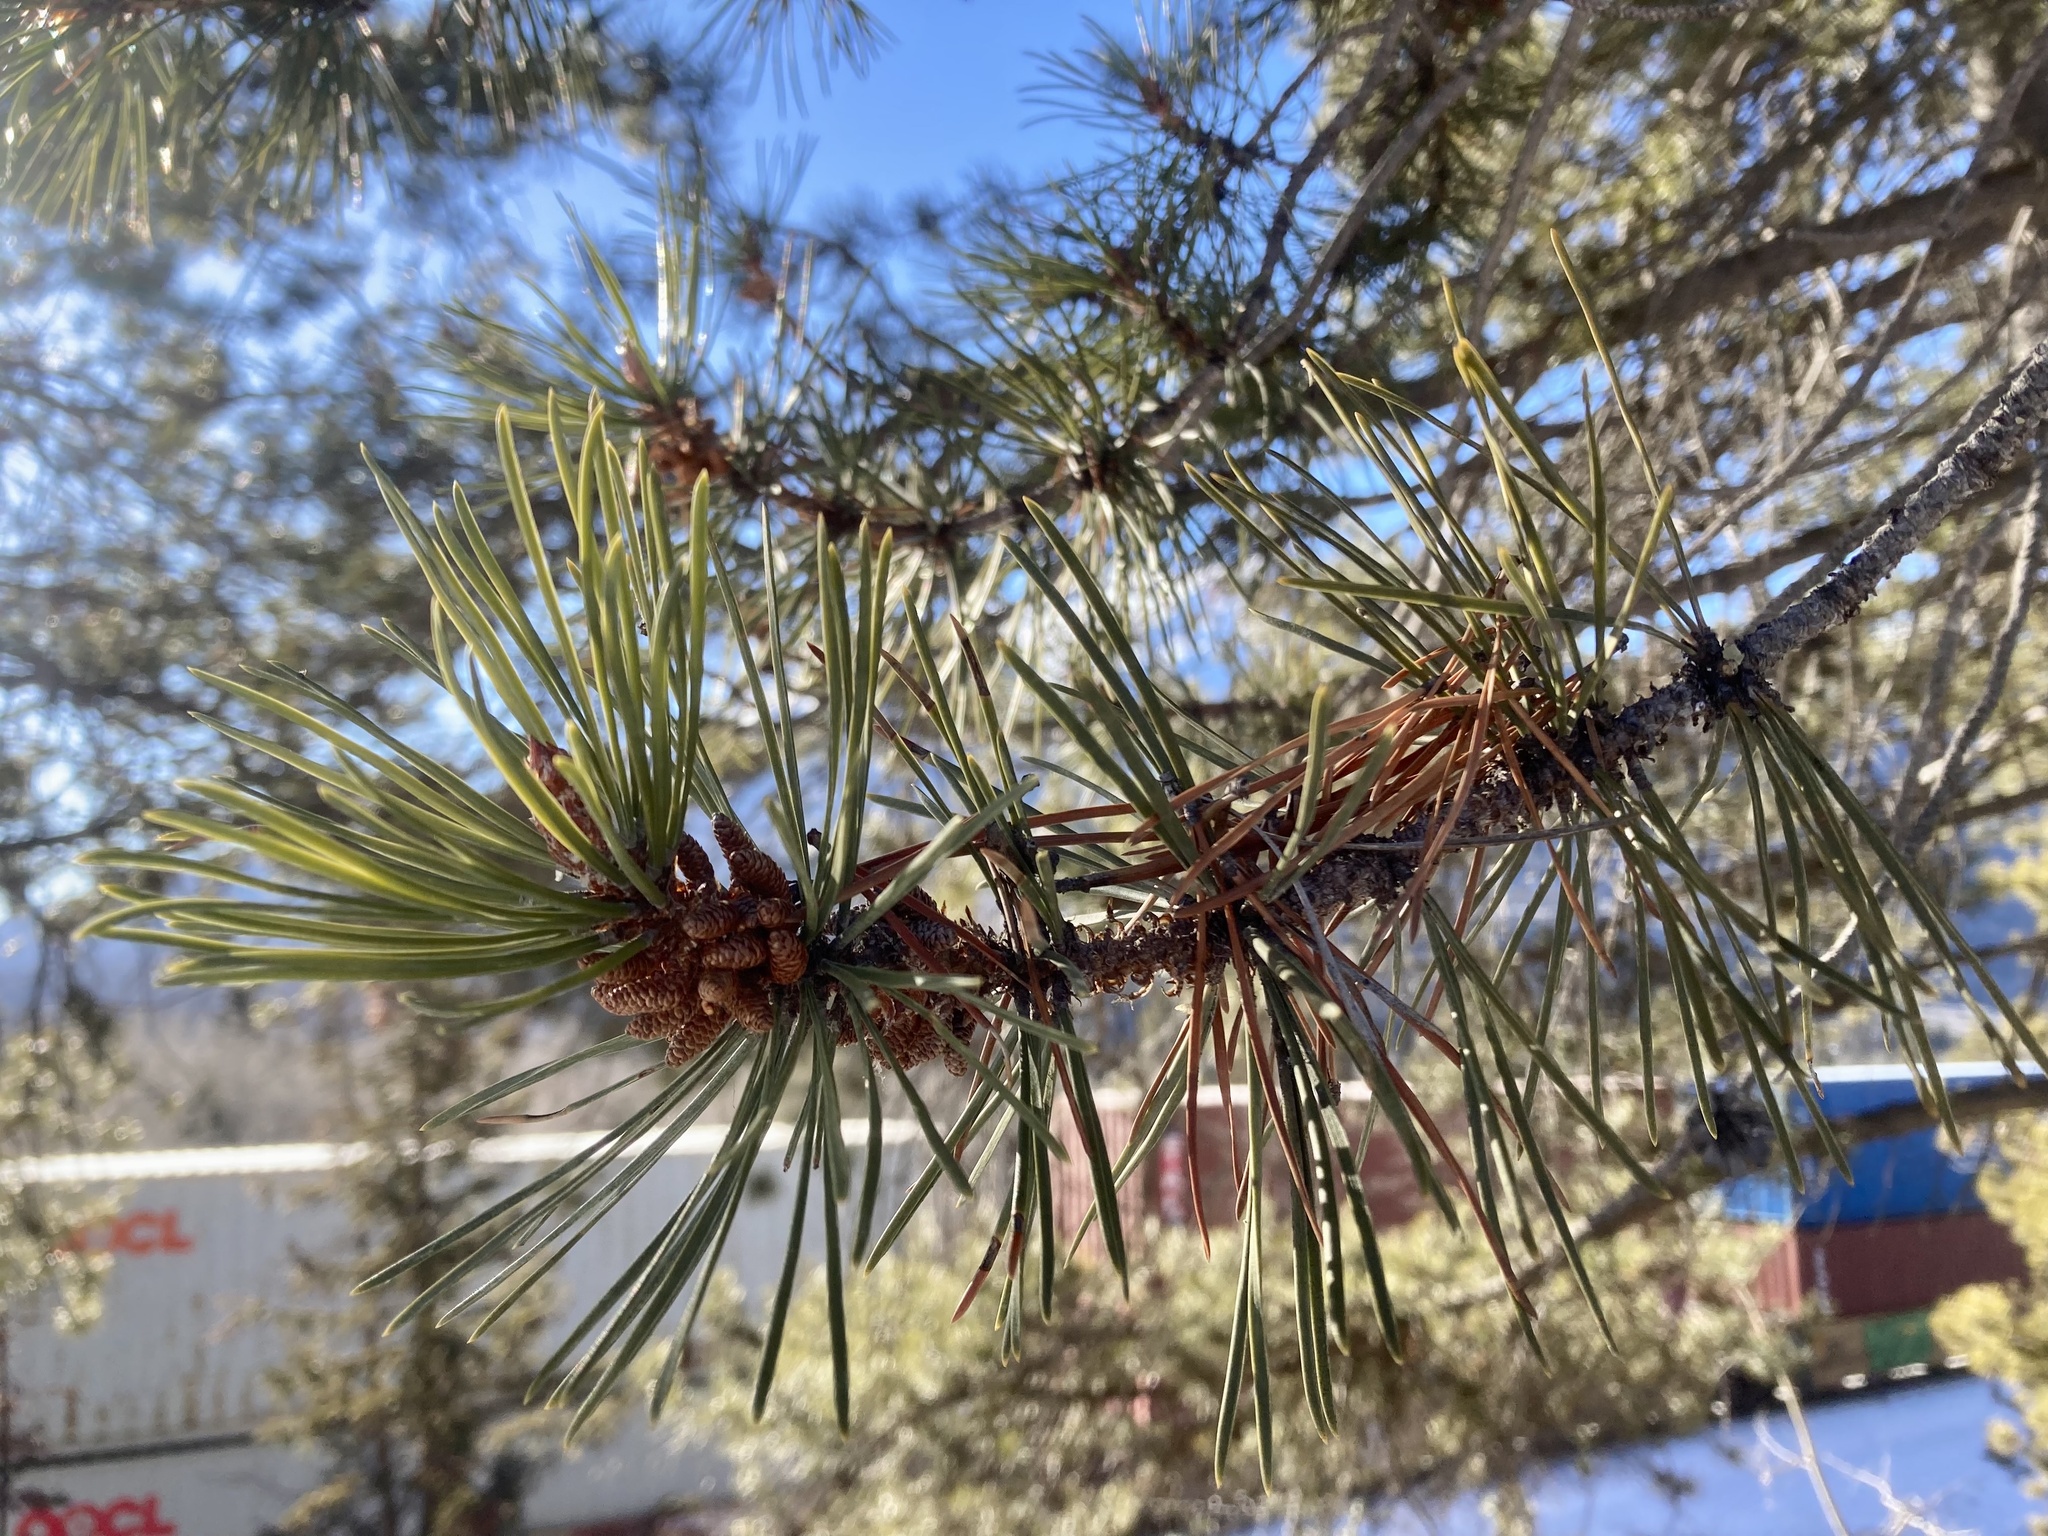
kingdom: Plantae
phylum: Tracheophyta
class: Pinopsida
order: Pinales
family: Pinaceae
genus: Pinus
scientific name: Pinus contorta
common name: Lodgepole pine
